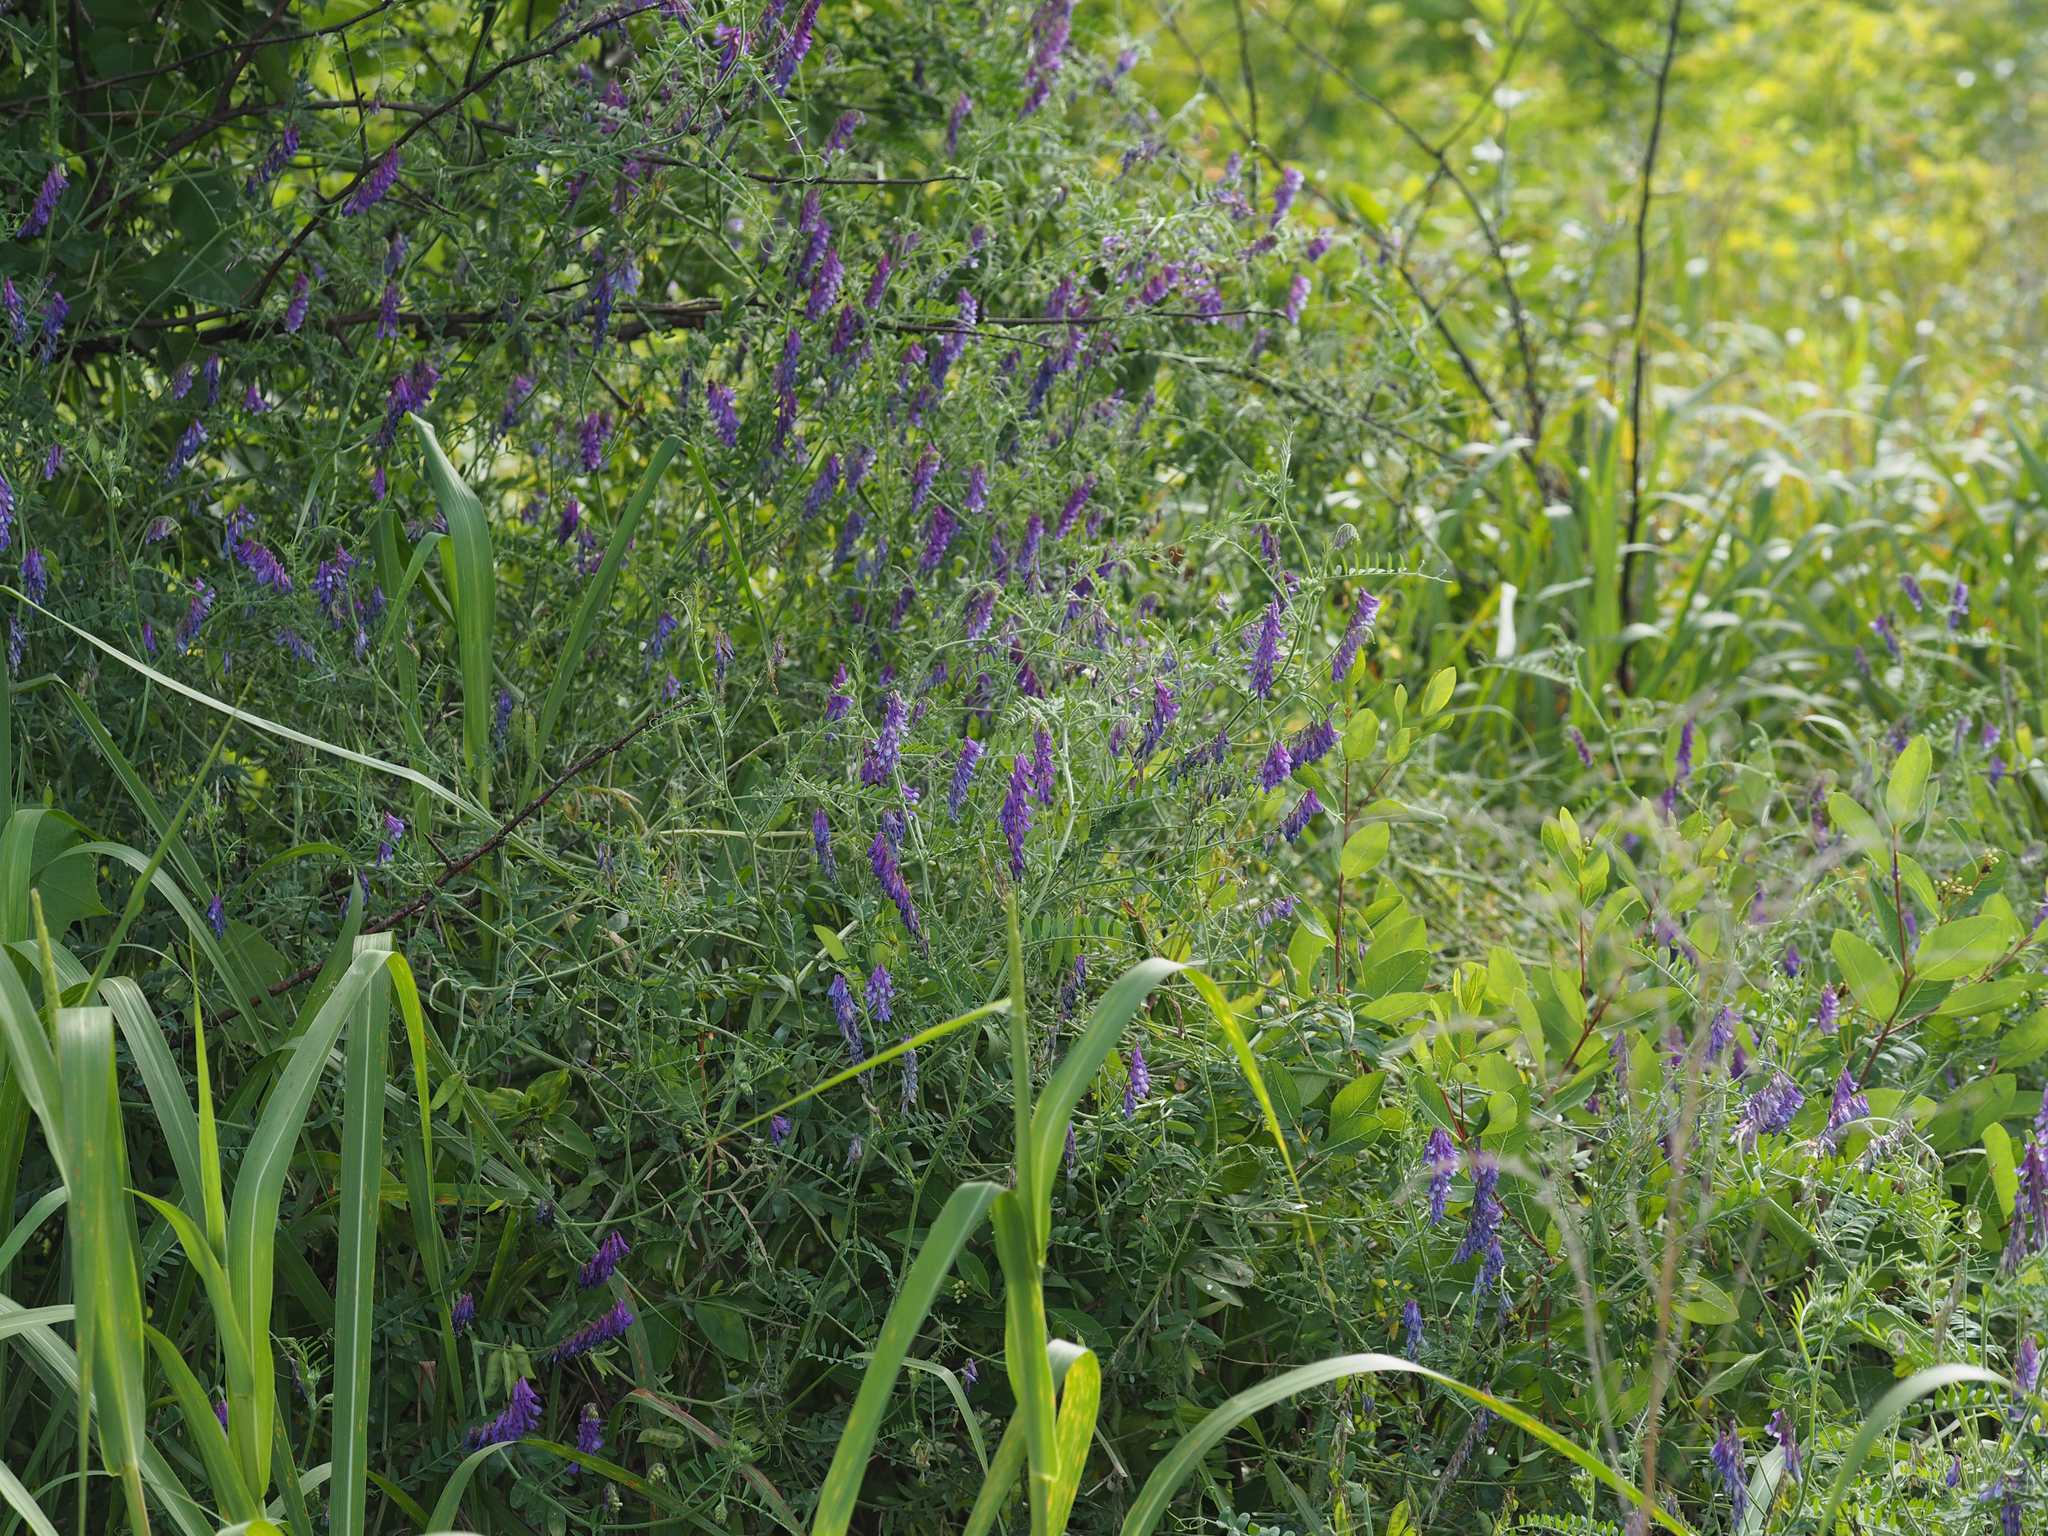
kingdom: Plantae
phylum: Tracheophyta
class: Magnoliopsida
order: Fabales
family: Fabaceae
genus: Vicia
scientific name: Vicia villosa
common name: Fodder vetch
